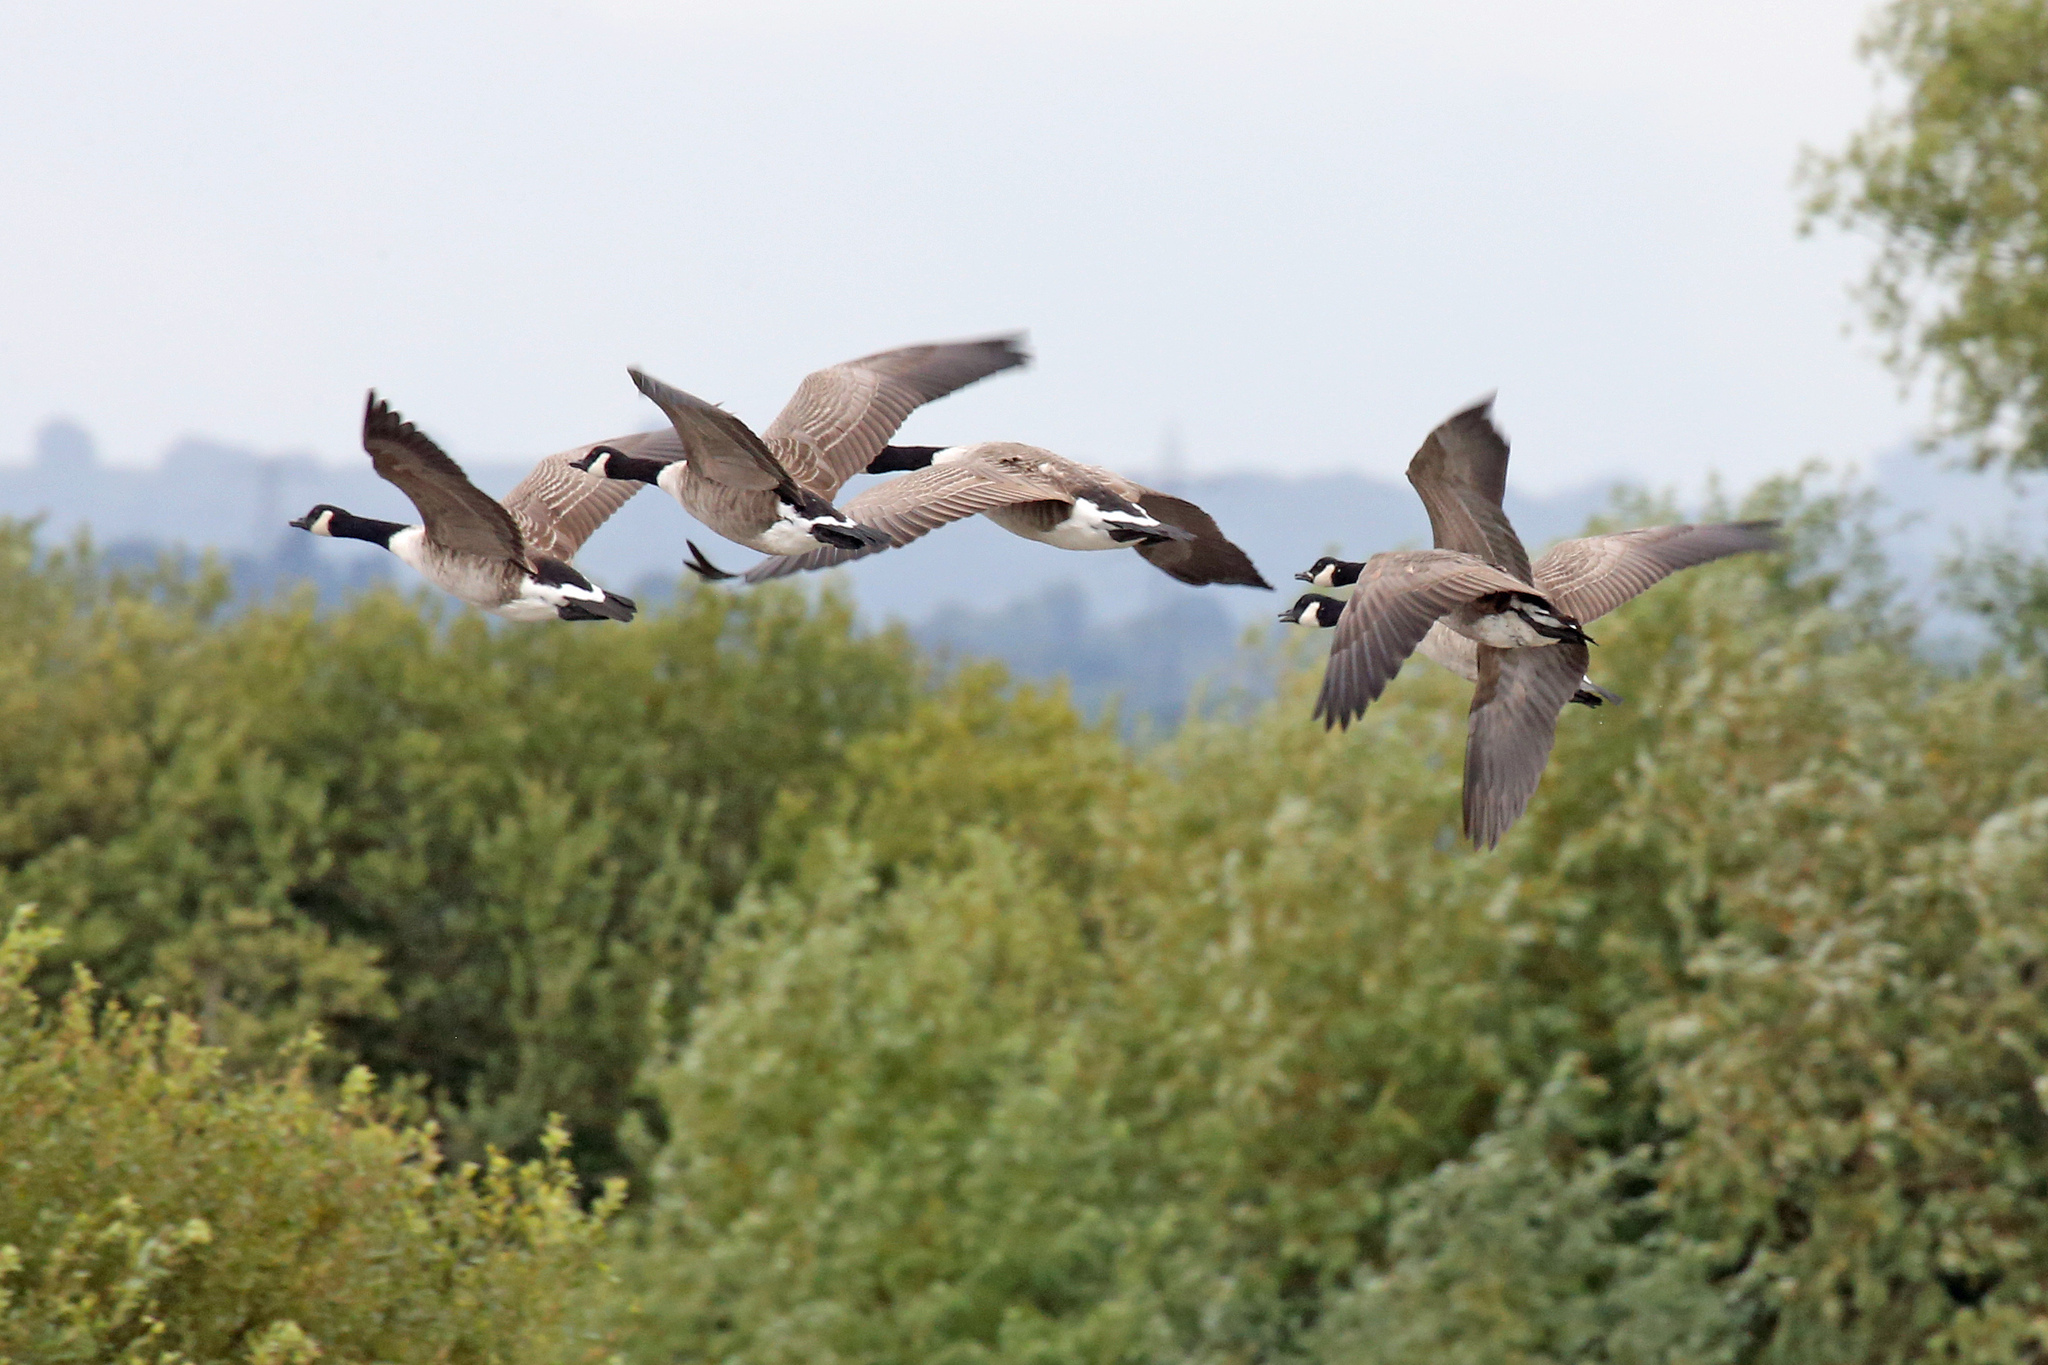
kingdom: Animalia
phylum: Chordata
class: Aves
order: Anseriformes
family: Anatidae
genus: Branta
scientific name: Branta canadensis
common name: Canada goose
